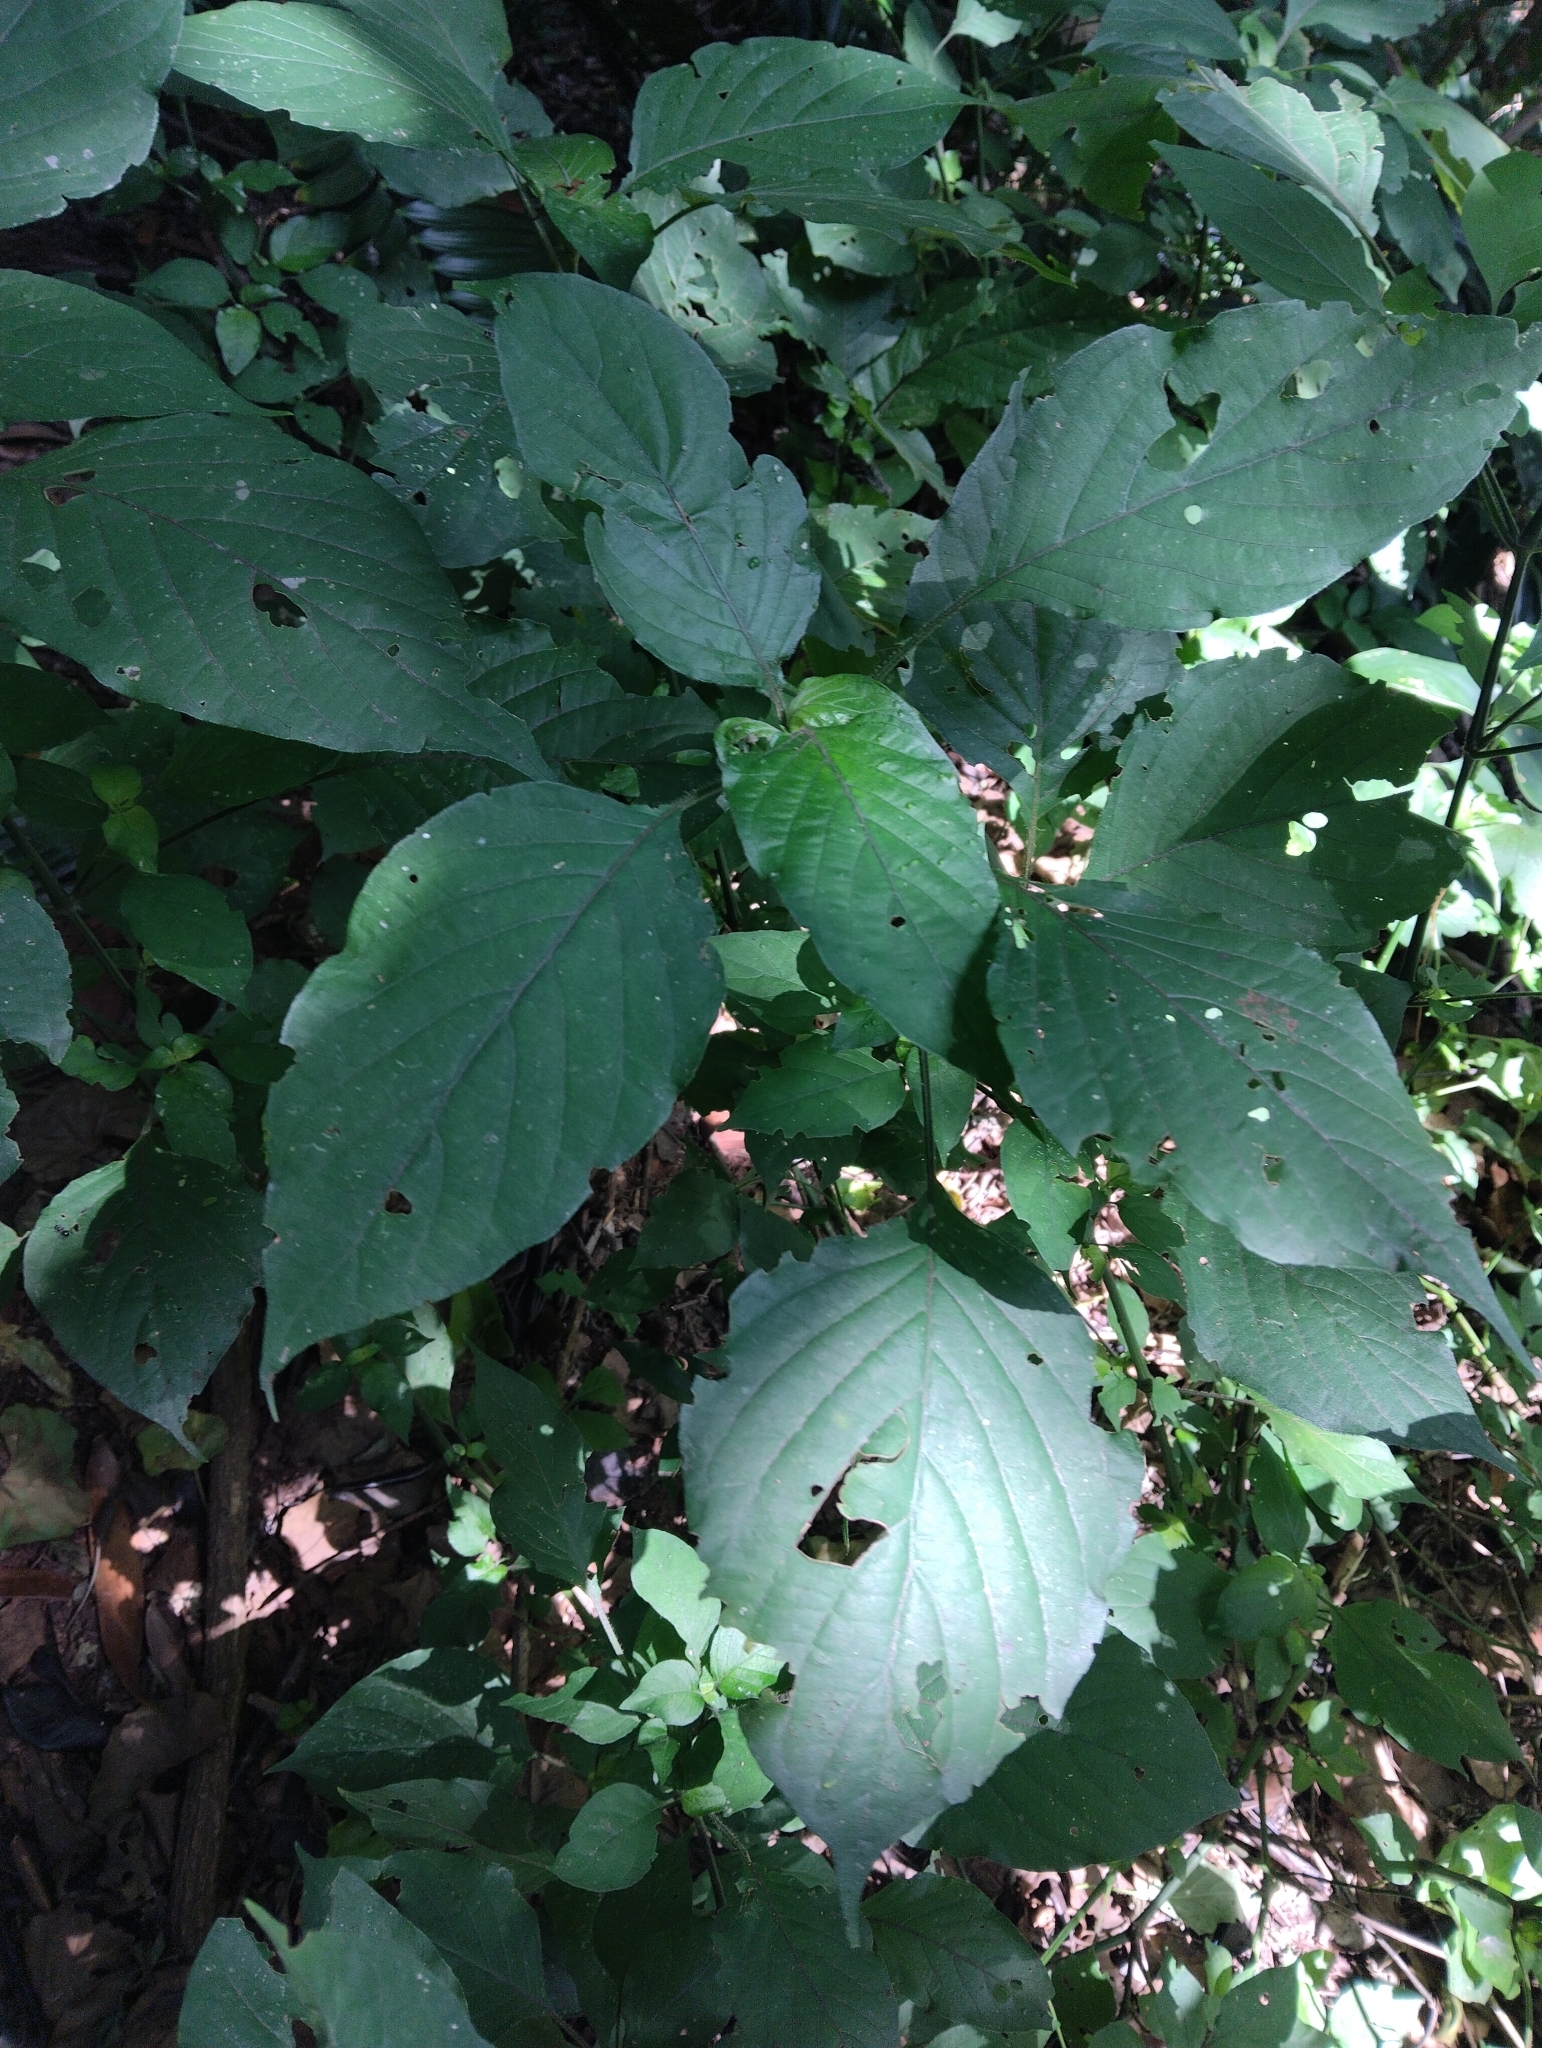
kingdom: Plantae
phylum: Tracheophyta
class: Magnoliopsida
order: Lamiales
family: Acanthaceae
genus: Isoglossa
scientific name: Isoglossa woodii
